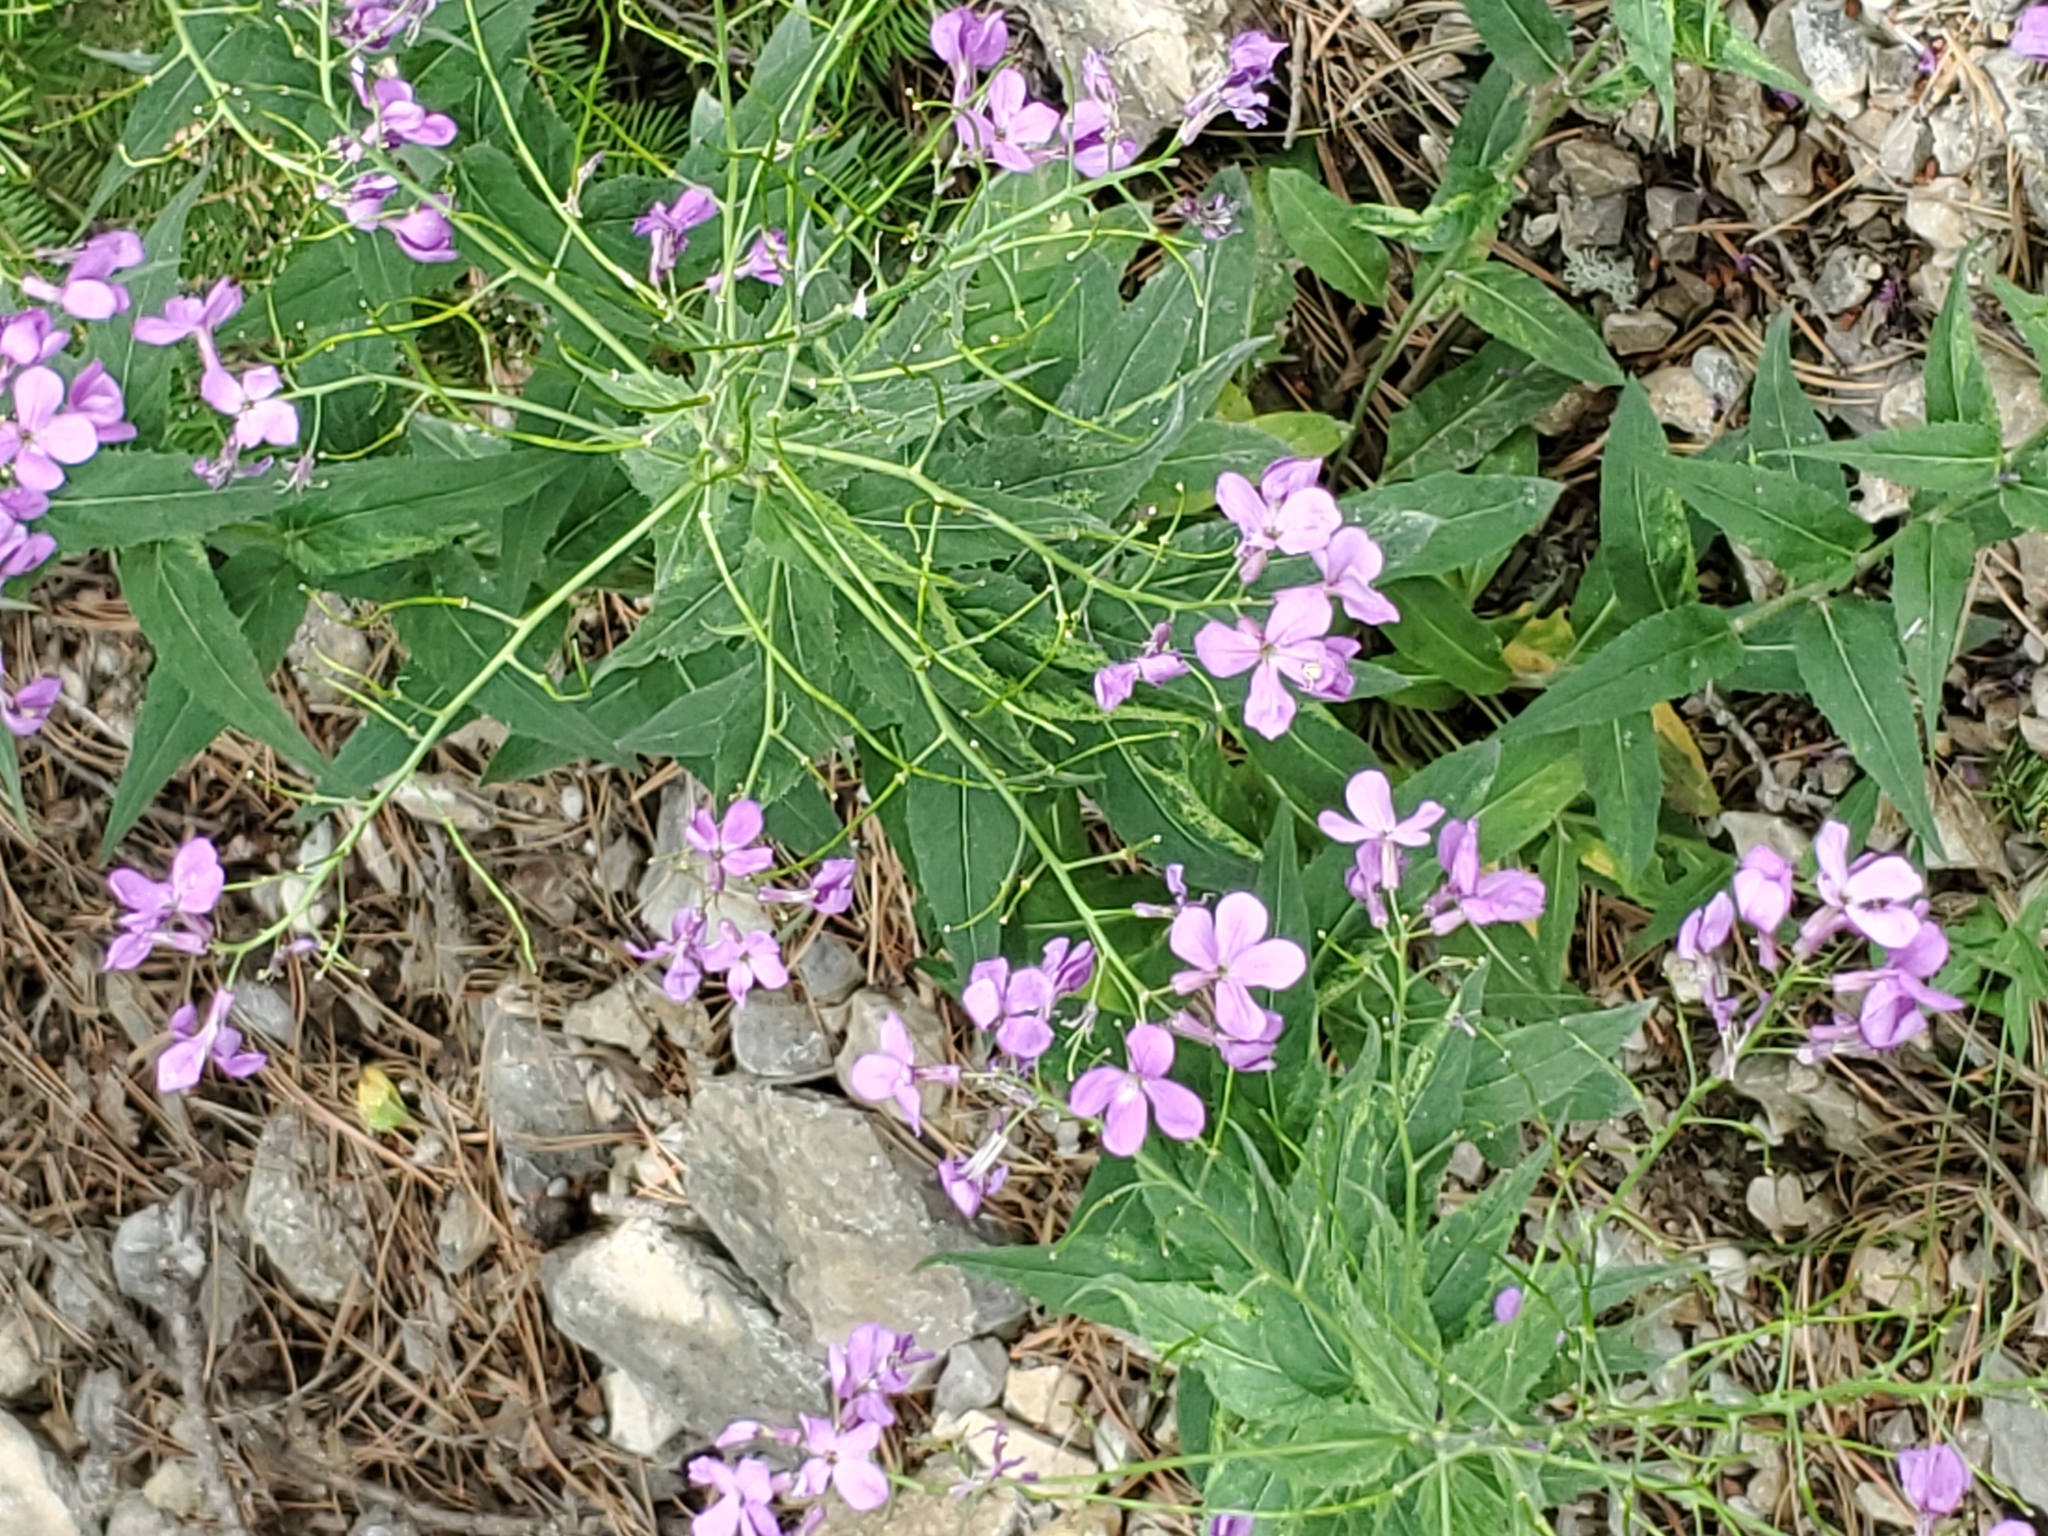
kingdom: Plantae
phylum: Tracheophyta
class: Magnoliopsida
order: Brassicales
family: Brassicaceae
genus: Hesperis
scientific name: Hesperis matronalis
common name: Dame's-violet
